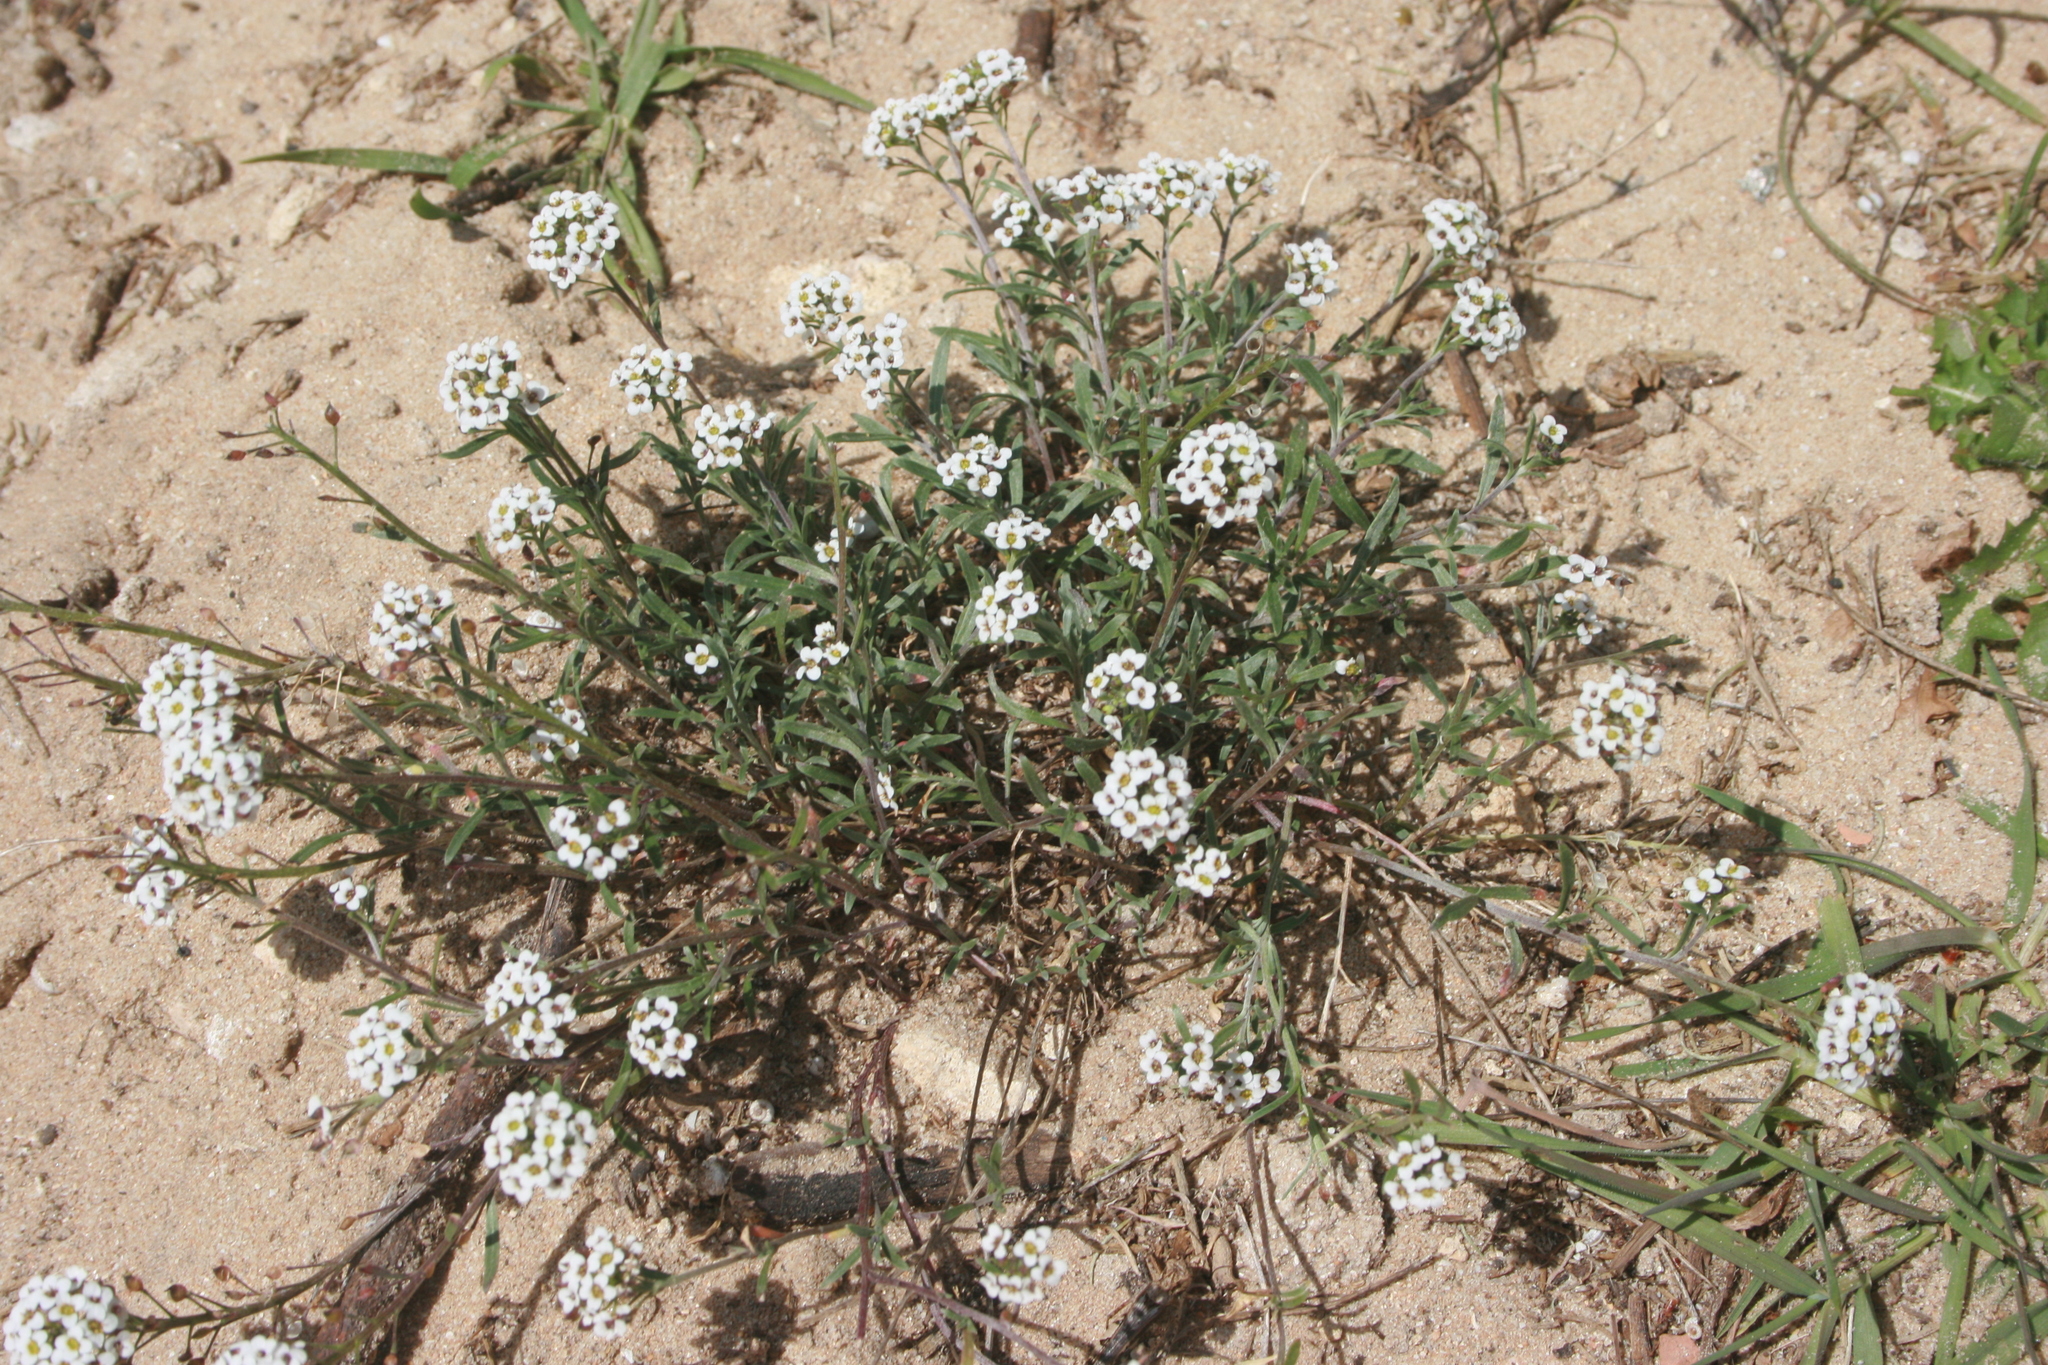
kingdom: Plantae
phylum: Tracheophyta
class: Magnoliopsida
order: Brassicales
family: Brassicaceae
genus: Lobularia
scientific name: Lobularia maritima
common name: Sweet alison
